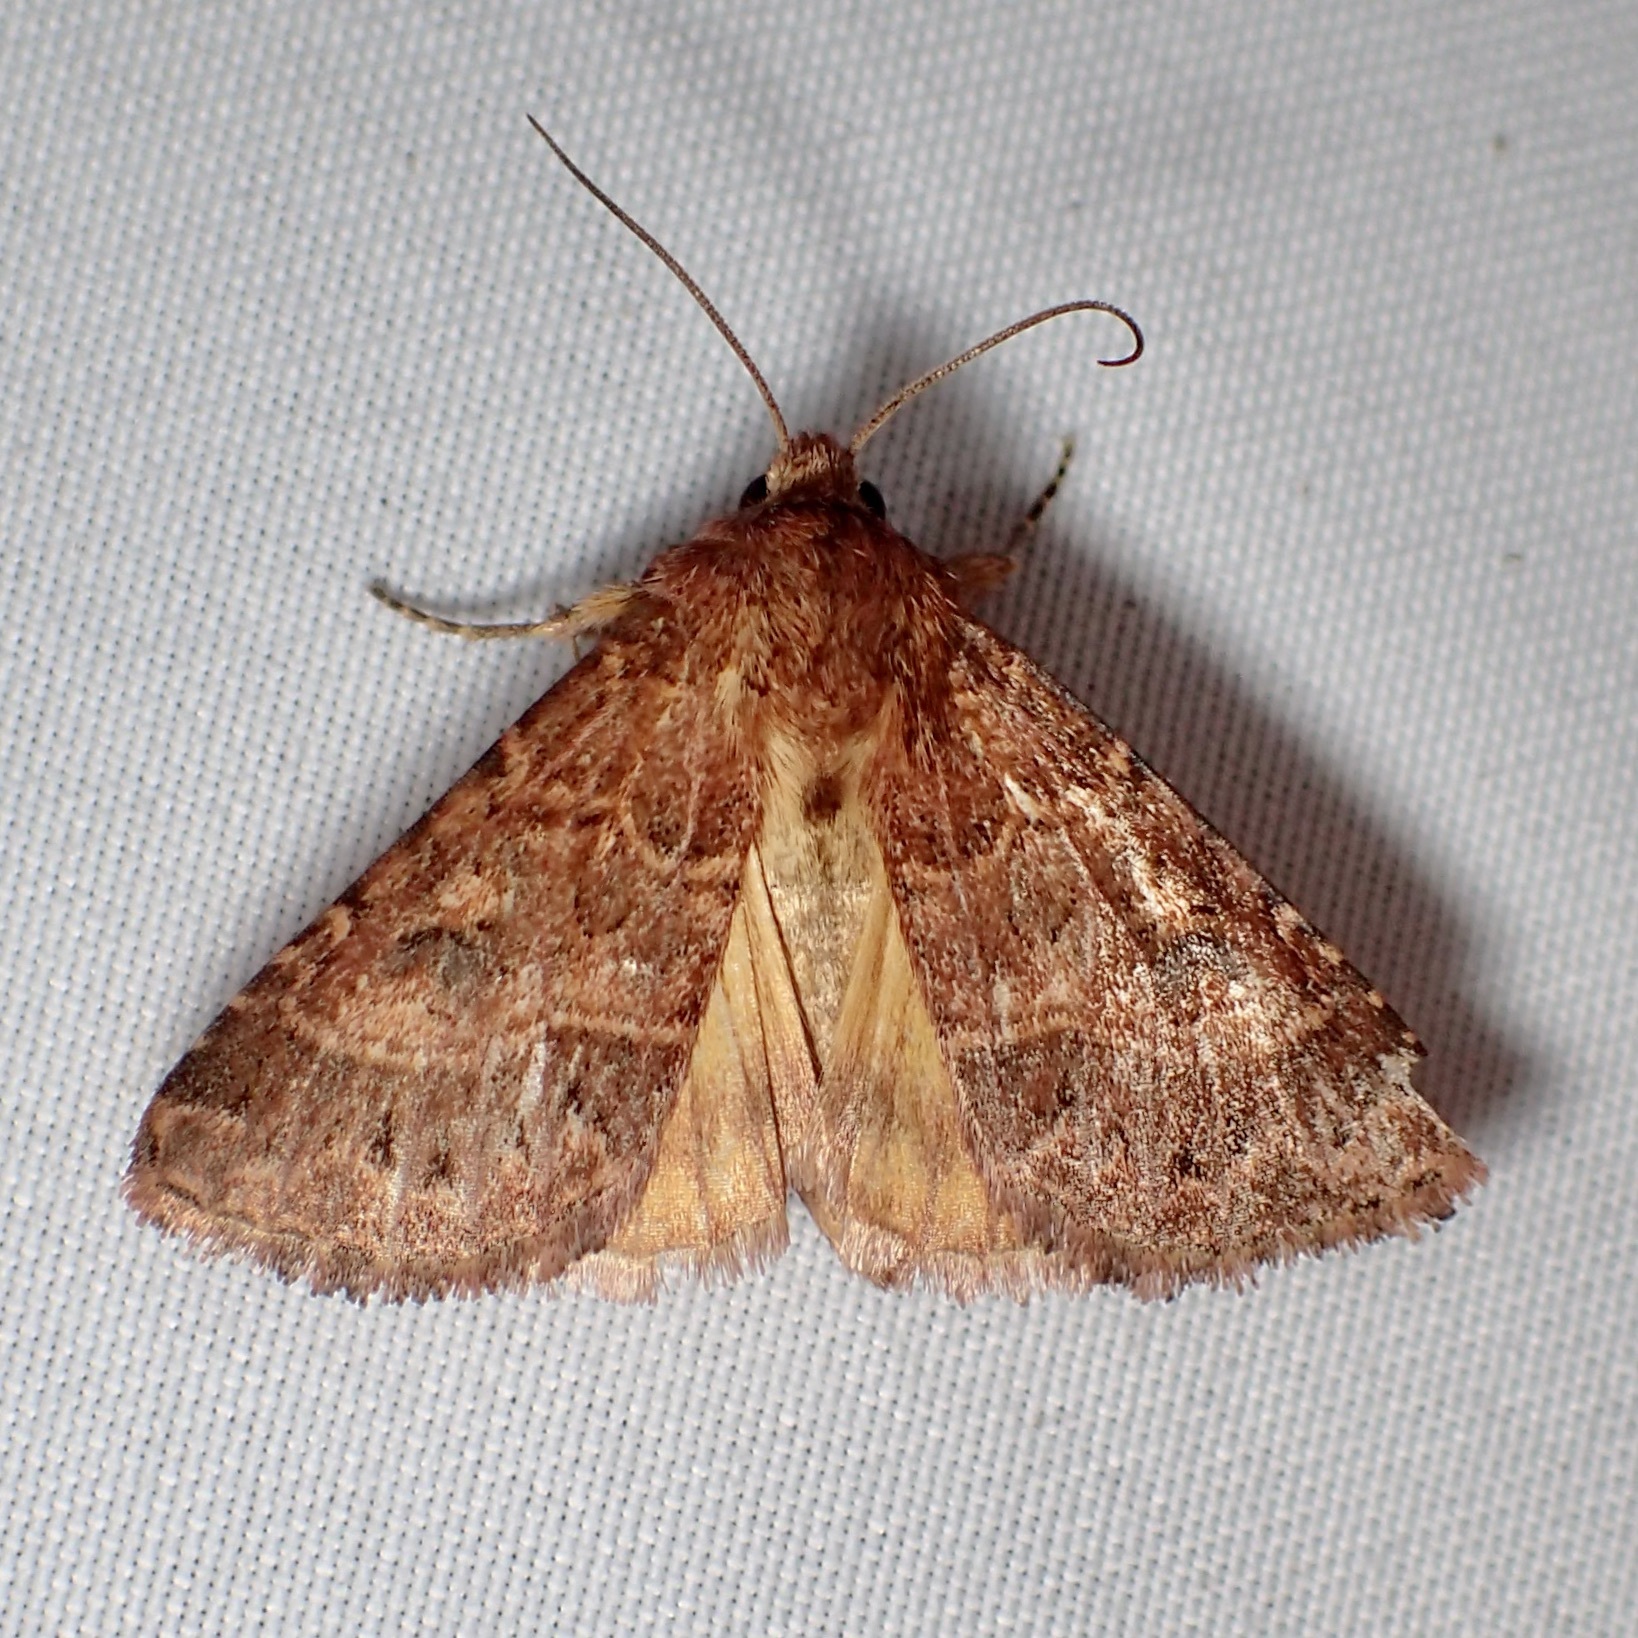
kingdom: Animalia
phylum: Arthropoda
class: Insecta
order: Lepidoptera
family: Noctuidae
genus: Schinia
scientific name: Schinia mexicana
